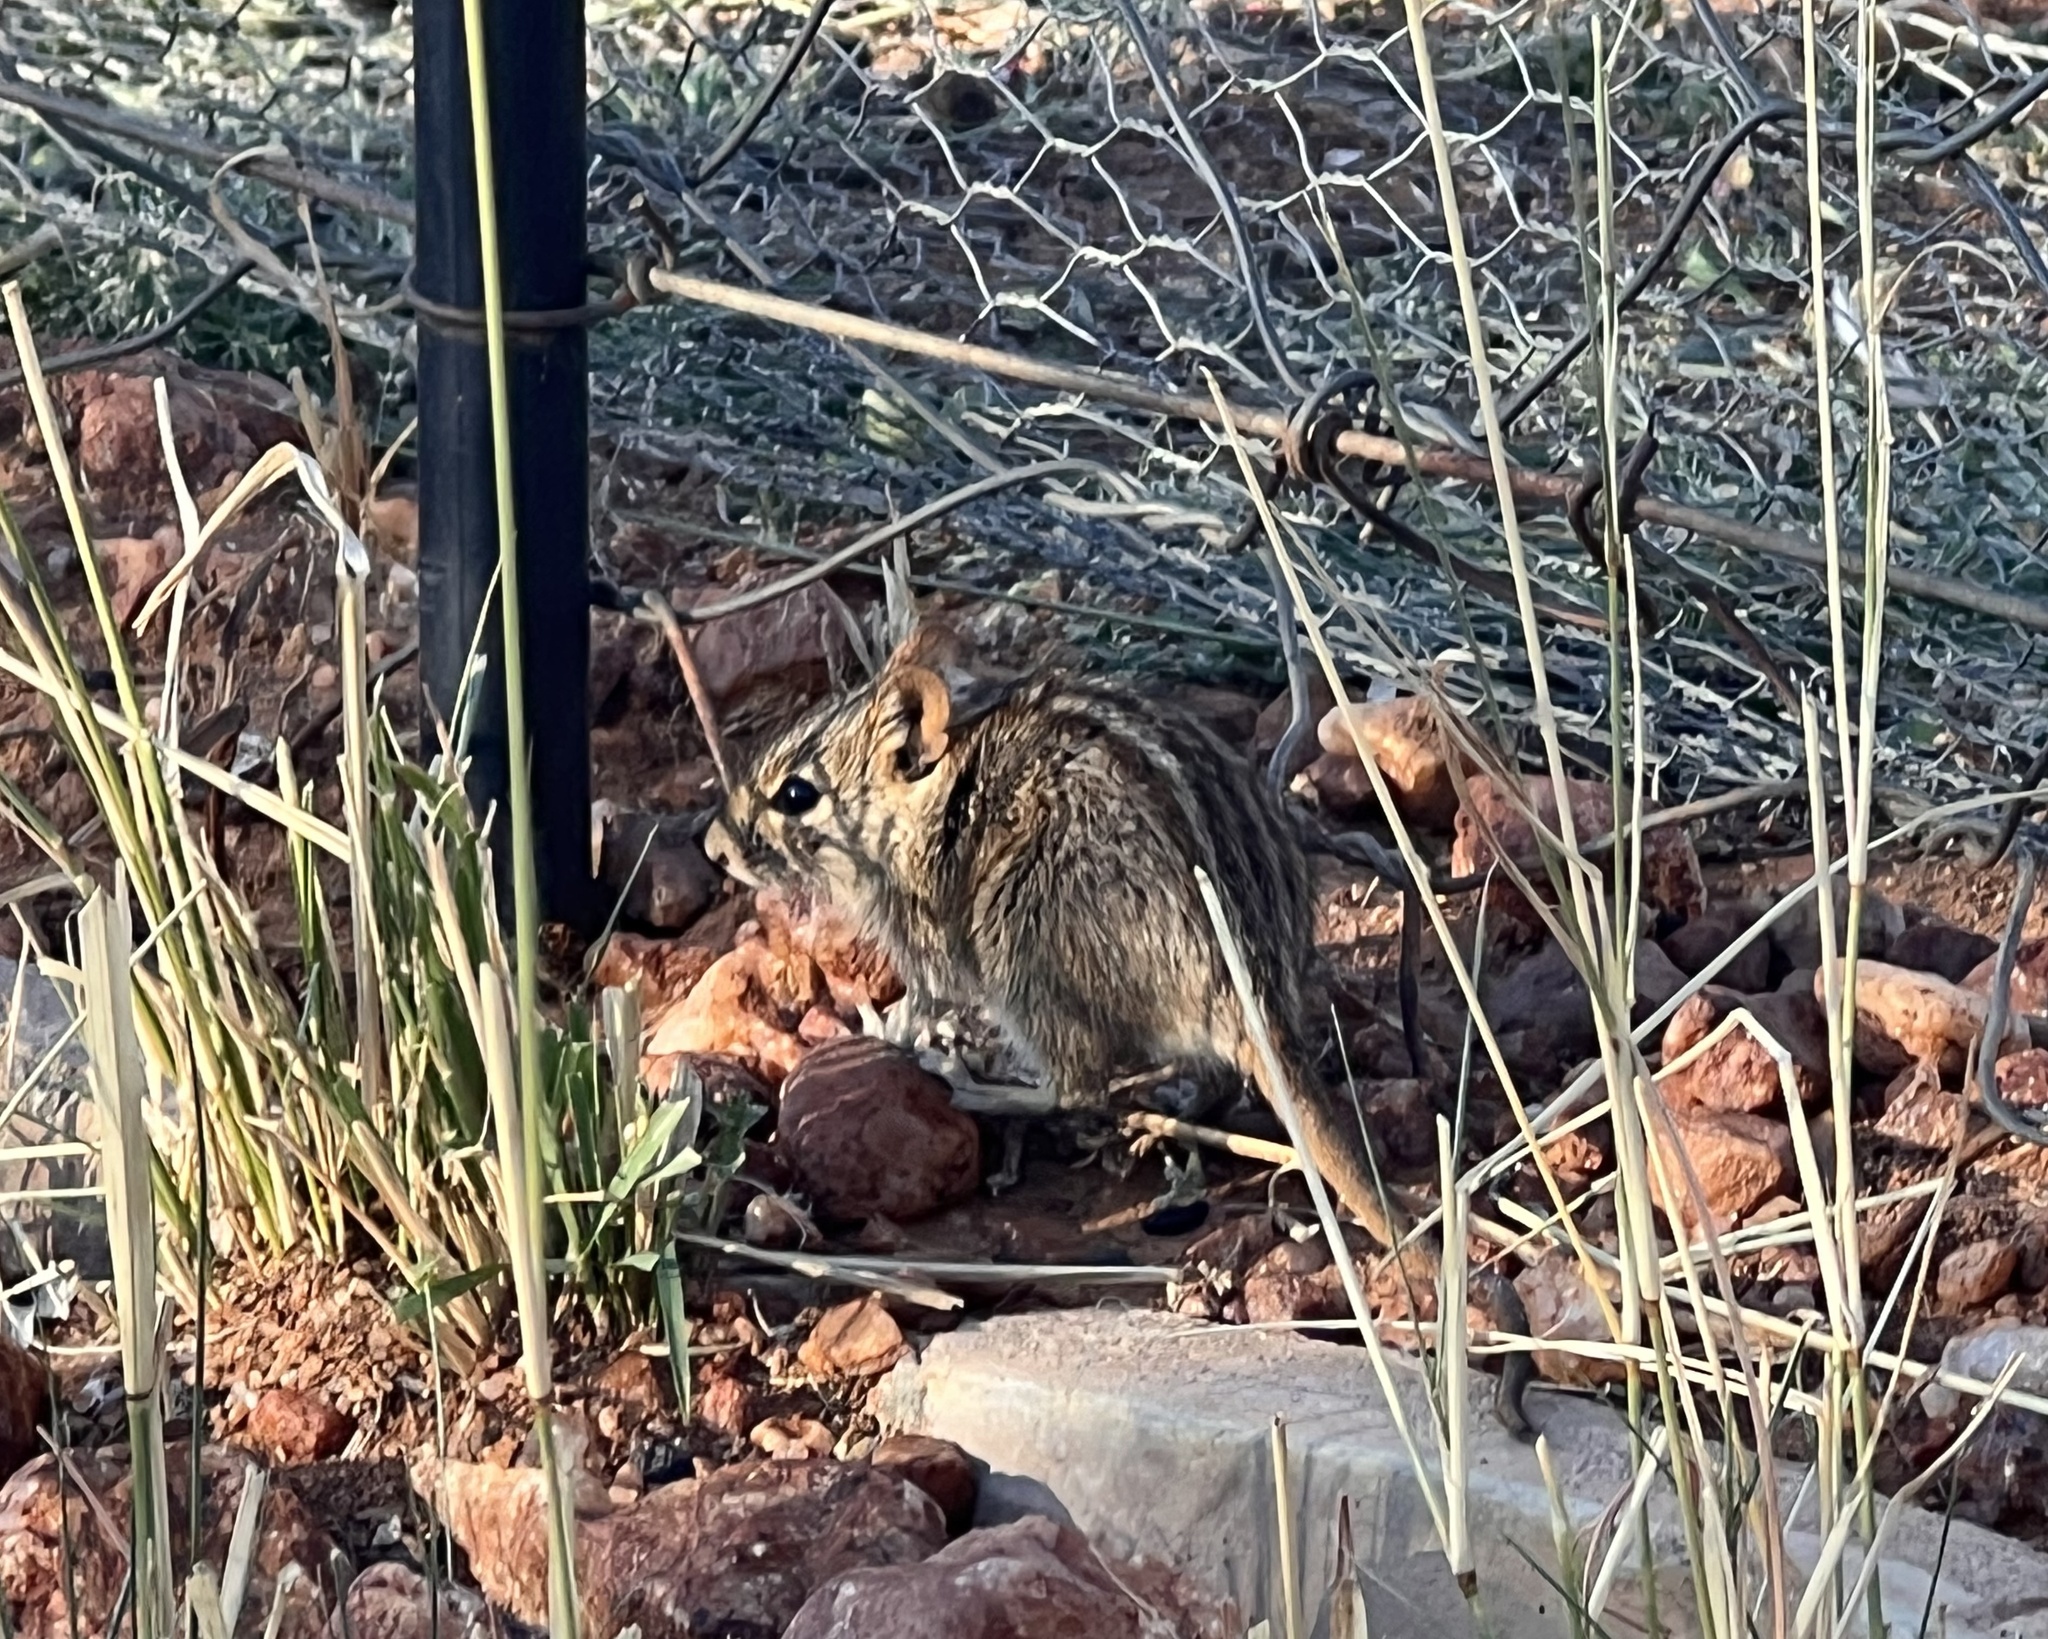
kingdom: Animalia
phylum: Chordata
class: Mammalia
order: Rodentia
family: Muridae
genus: Rhabdomys
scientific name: Rhabdomys pumilio
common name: Xeric four-striped grass rat
